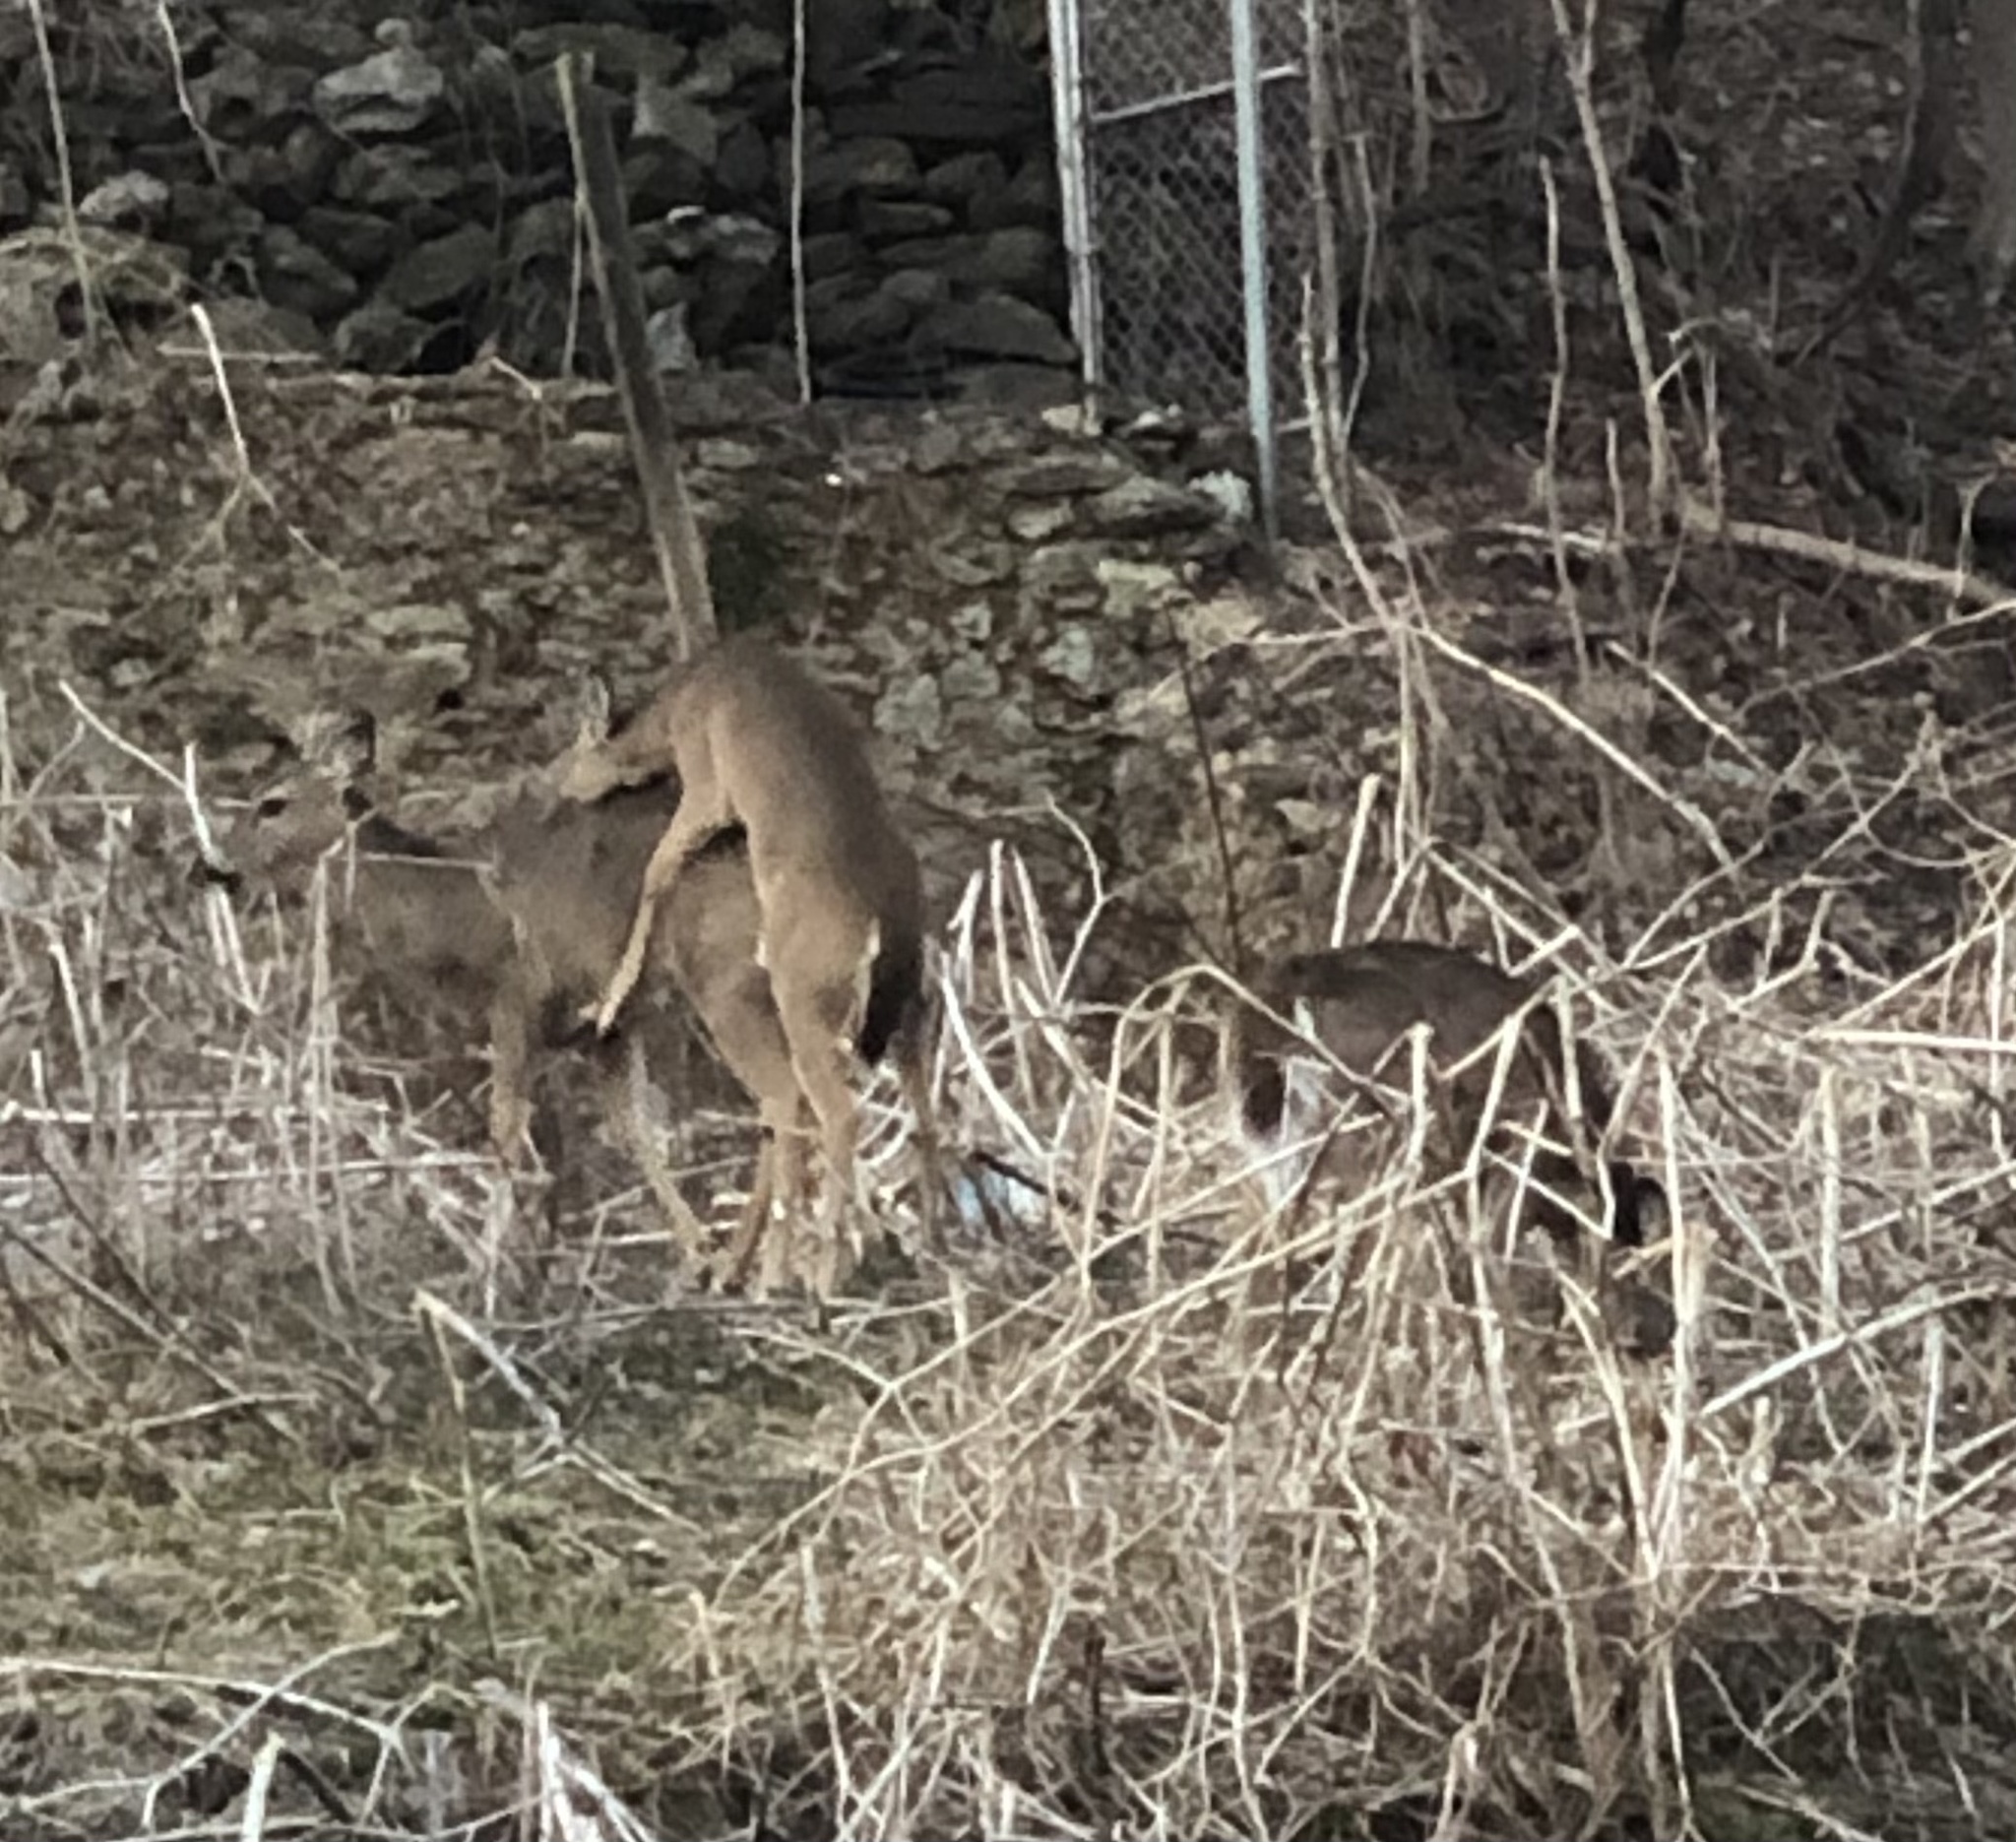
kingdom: Animalia
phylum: Chordata
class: Mammalia
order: Artiodactyla
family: Cervidae
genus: Odocoileus
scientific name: Odocoileus virginianus
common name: White-tailed deer
